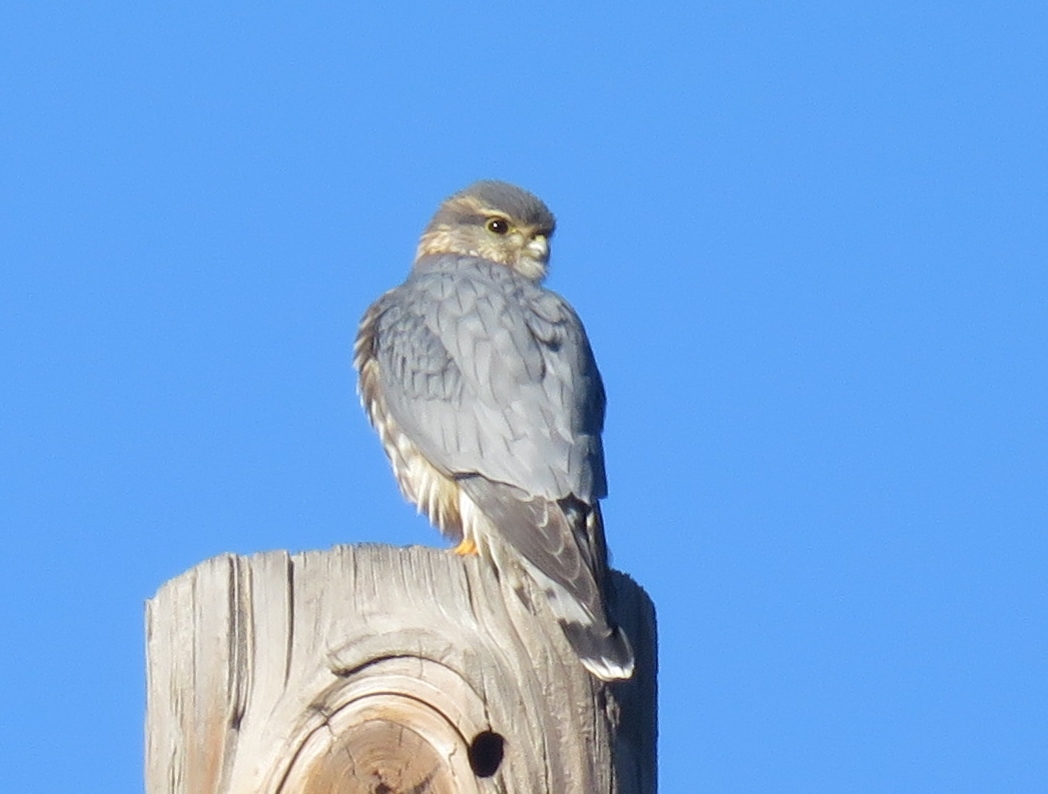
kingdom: Animalia
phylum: Chordata
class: Aves
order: Falconiformes
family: Falconidae
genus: Falco
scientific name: Falco columbarius
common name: Merlin
